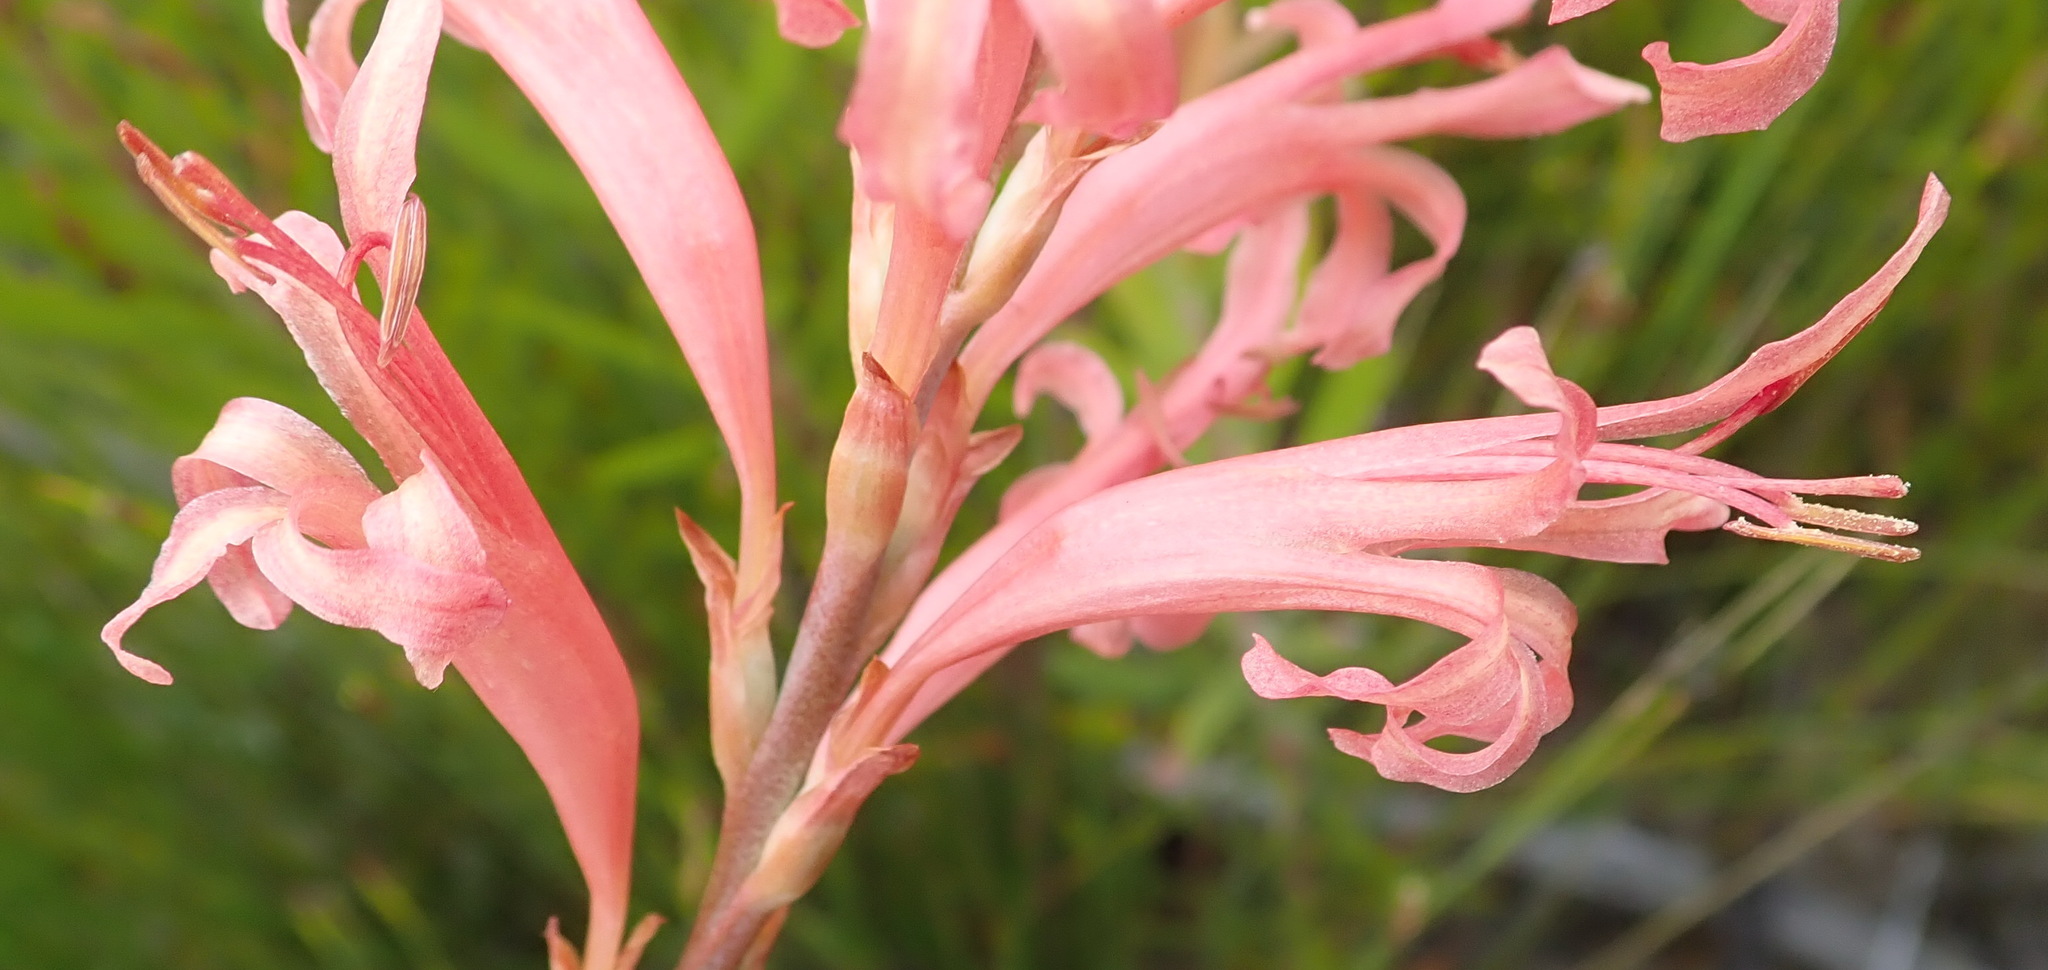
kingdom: Plantae
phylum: Tracheophyta
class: Liliopsida
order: Asparagales
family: Iridaceae
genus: Tritoniopsis
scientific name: Tritoniopsis antholyza
